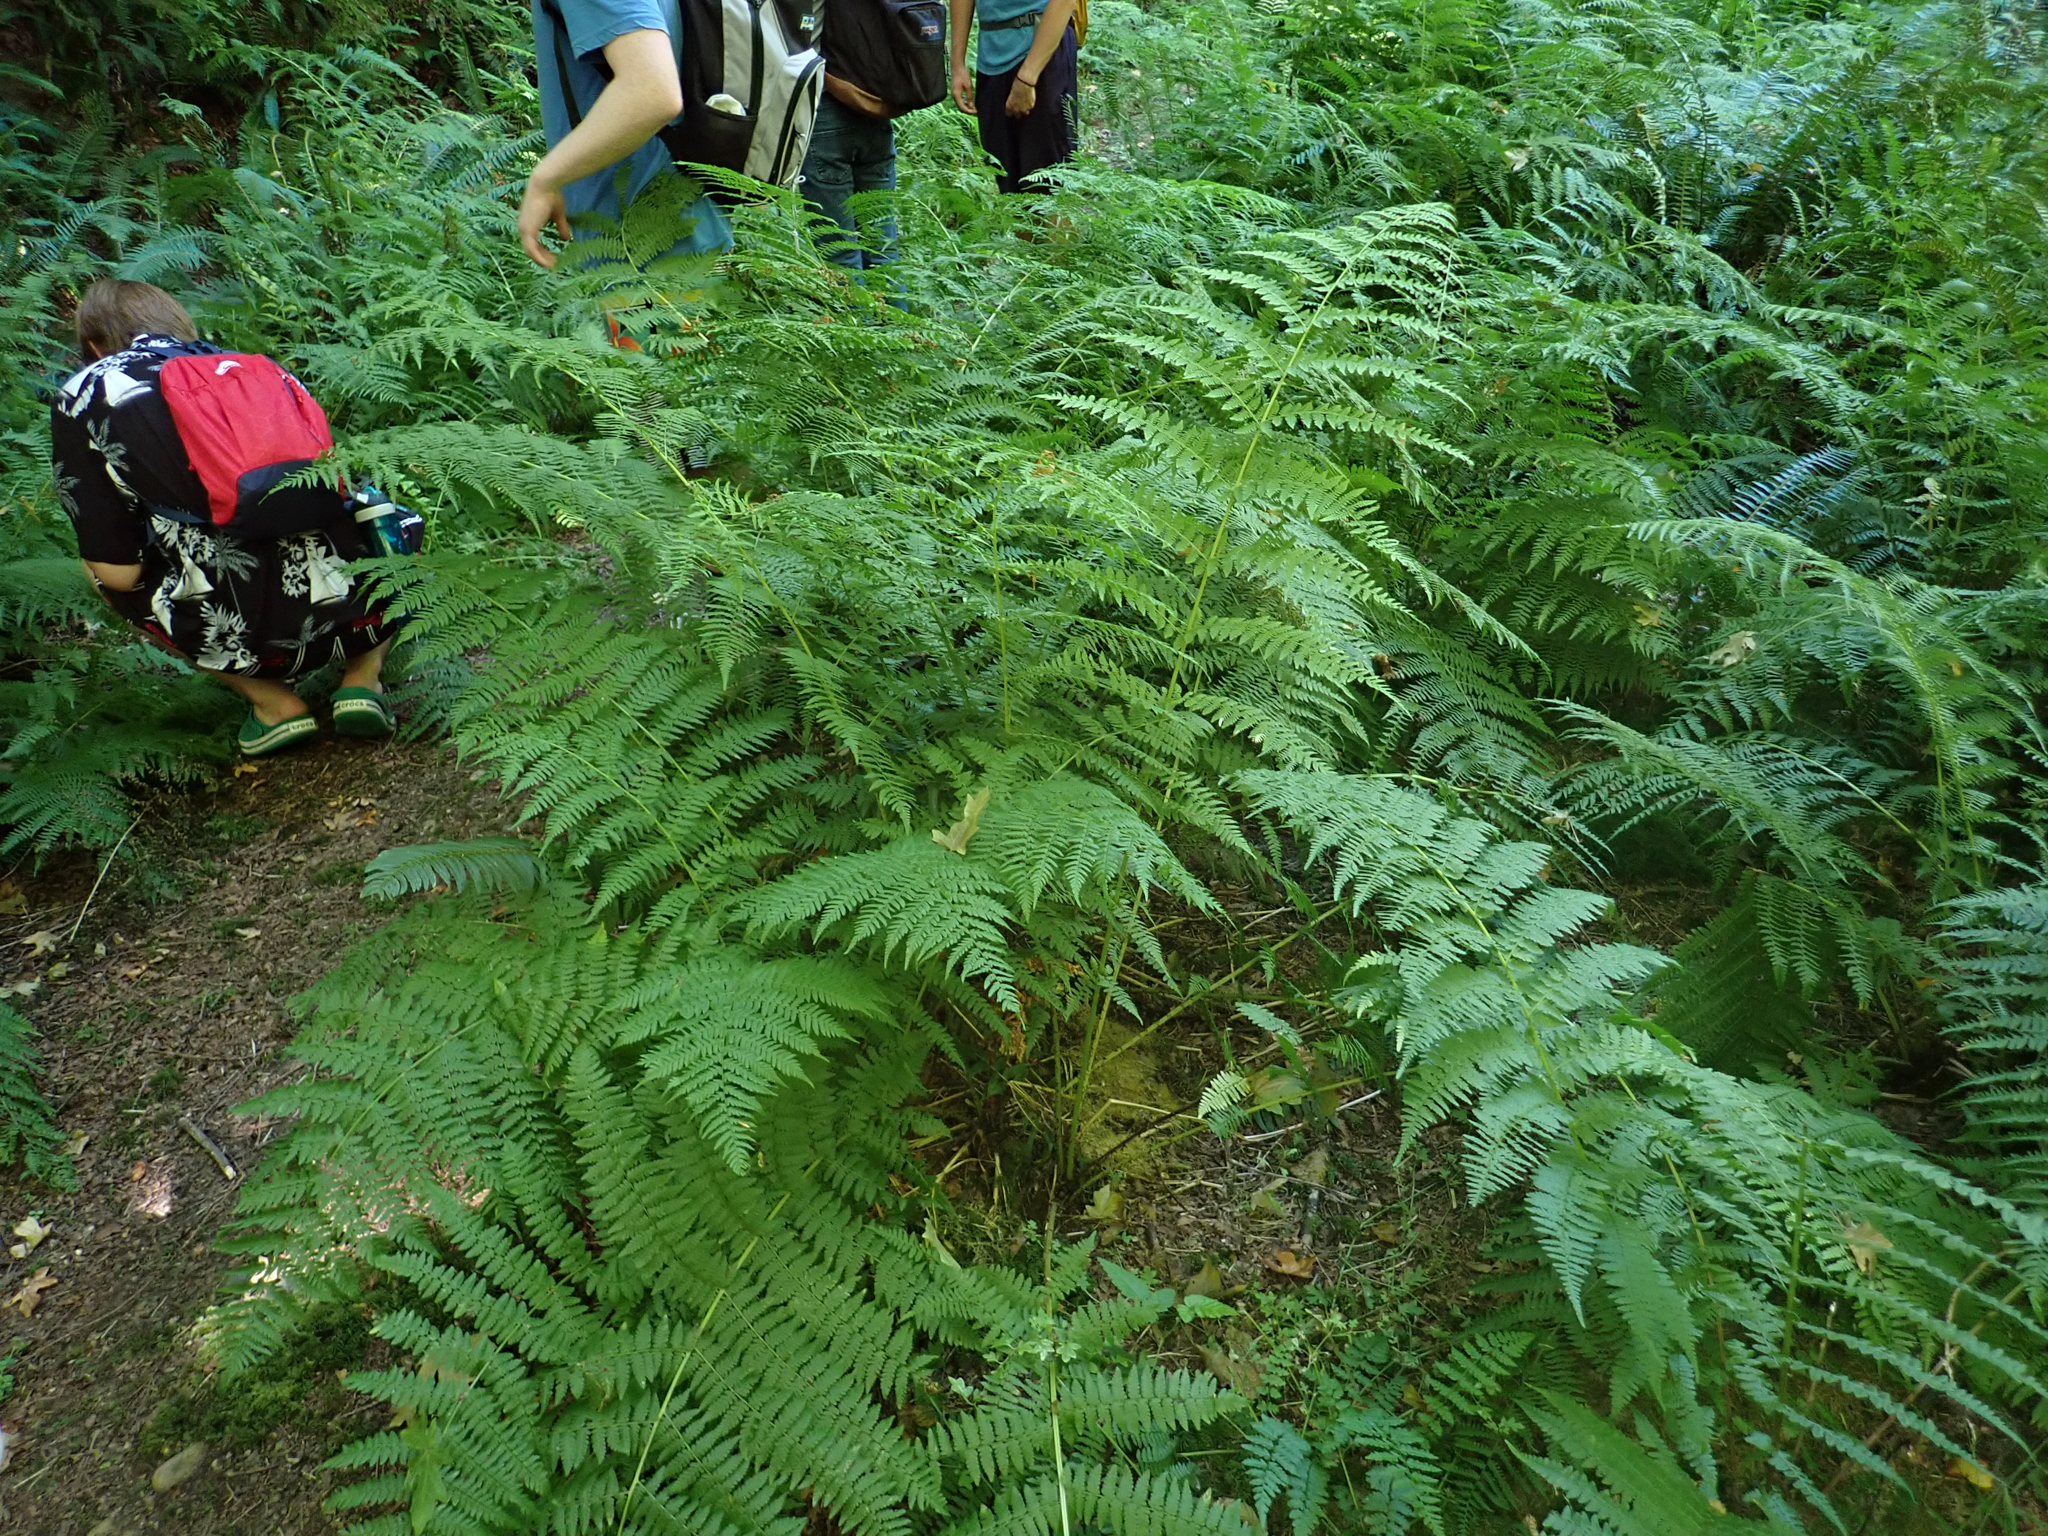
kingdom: Plantae
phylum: Tracheophyta
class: Polypodiopsida
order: Polypodiales
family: Athyriaceae
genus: Athyrium
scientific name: Athyrium filix-femina
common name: Lady fern
